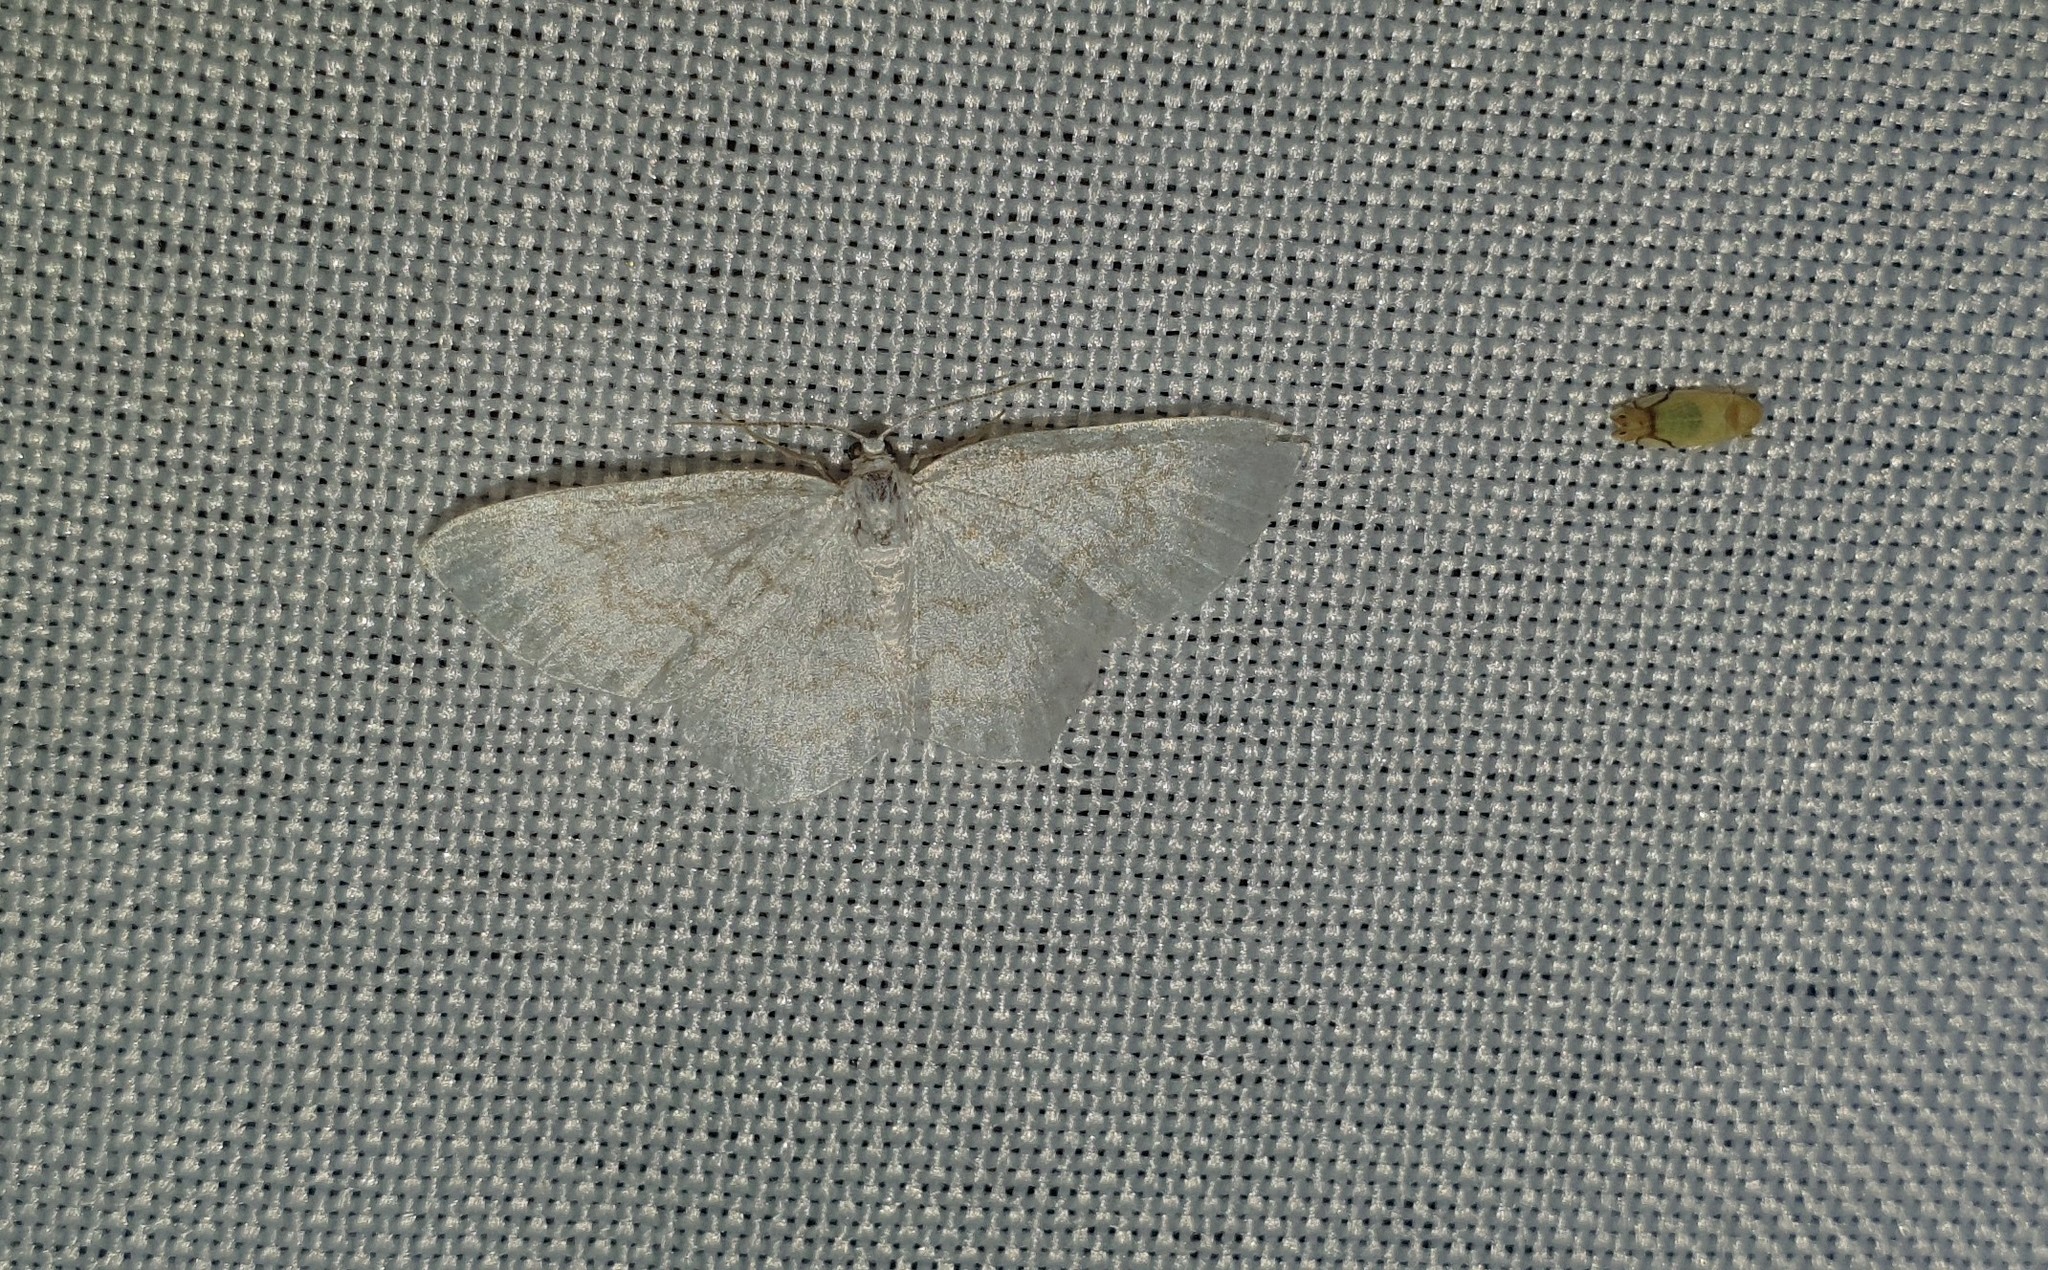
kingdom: Animalia
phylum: Arthropoda
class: Insecta
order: Lepidoptera
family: Geometridae
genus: Asthena
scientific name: Asthena albulata
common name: Small white wave
